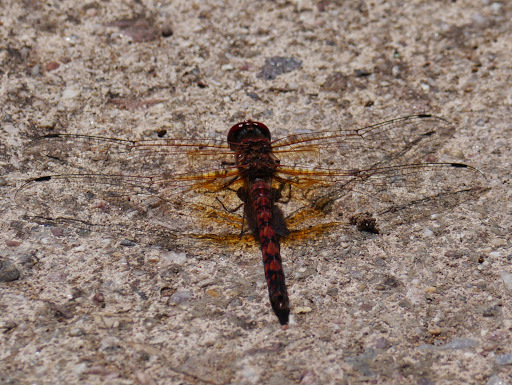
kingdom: Animalia
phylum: Arthropoda
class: Insecta
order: Odonata
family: Libellulidae
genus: Paltothemis
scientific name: Paltothemis lineatipes
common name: Red rock skimmer
